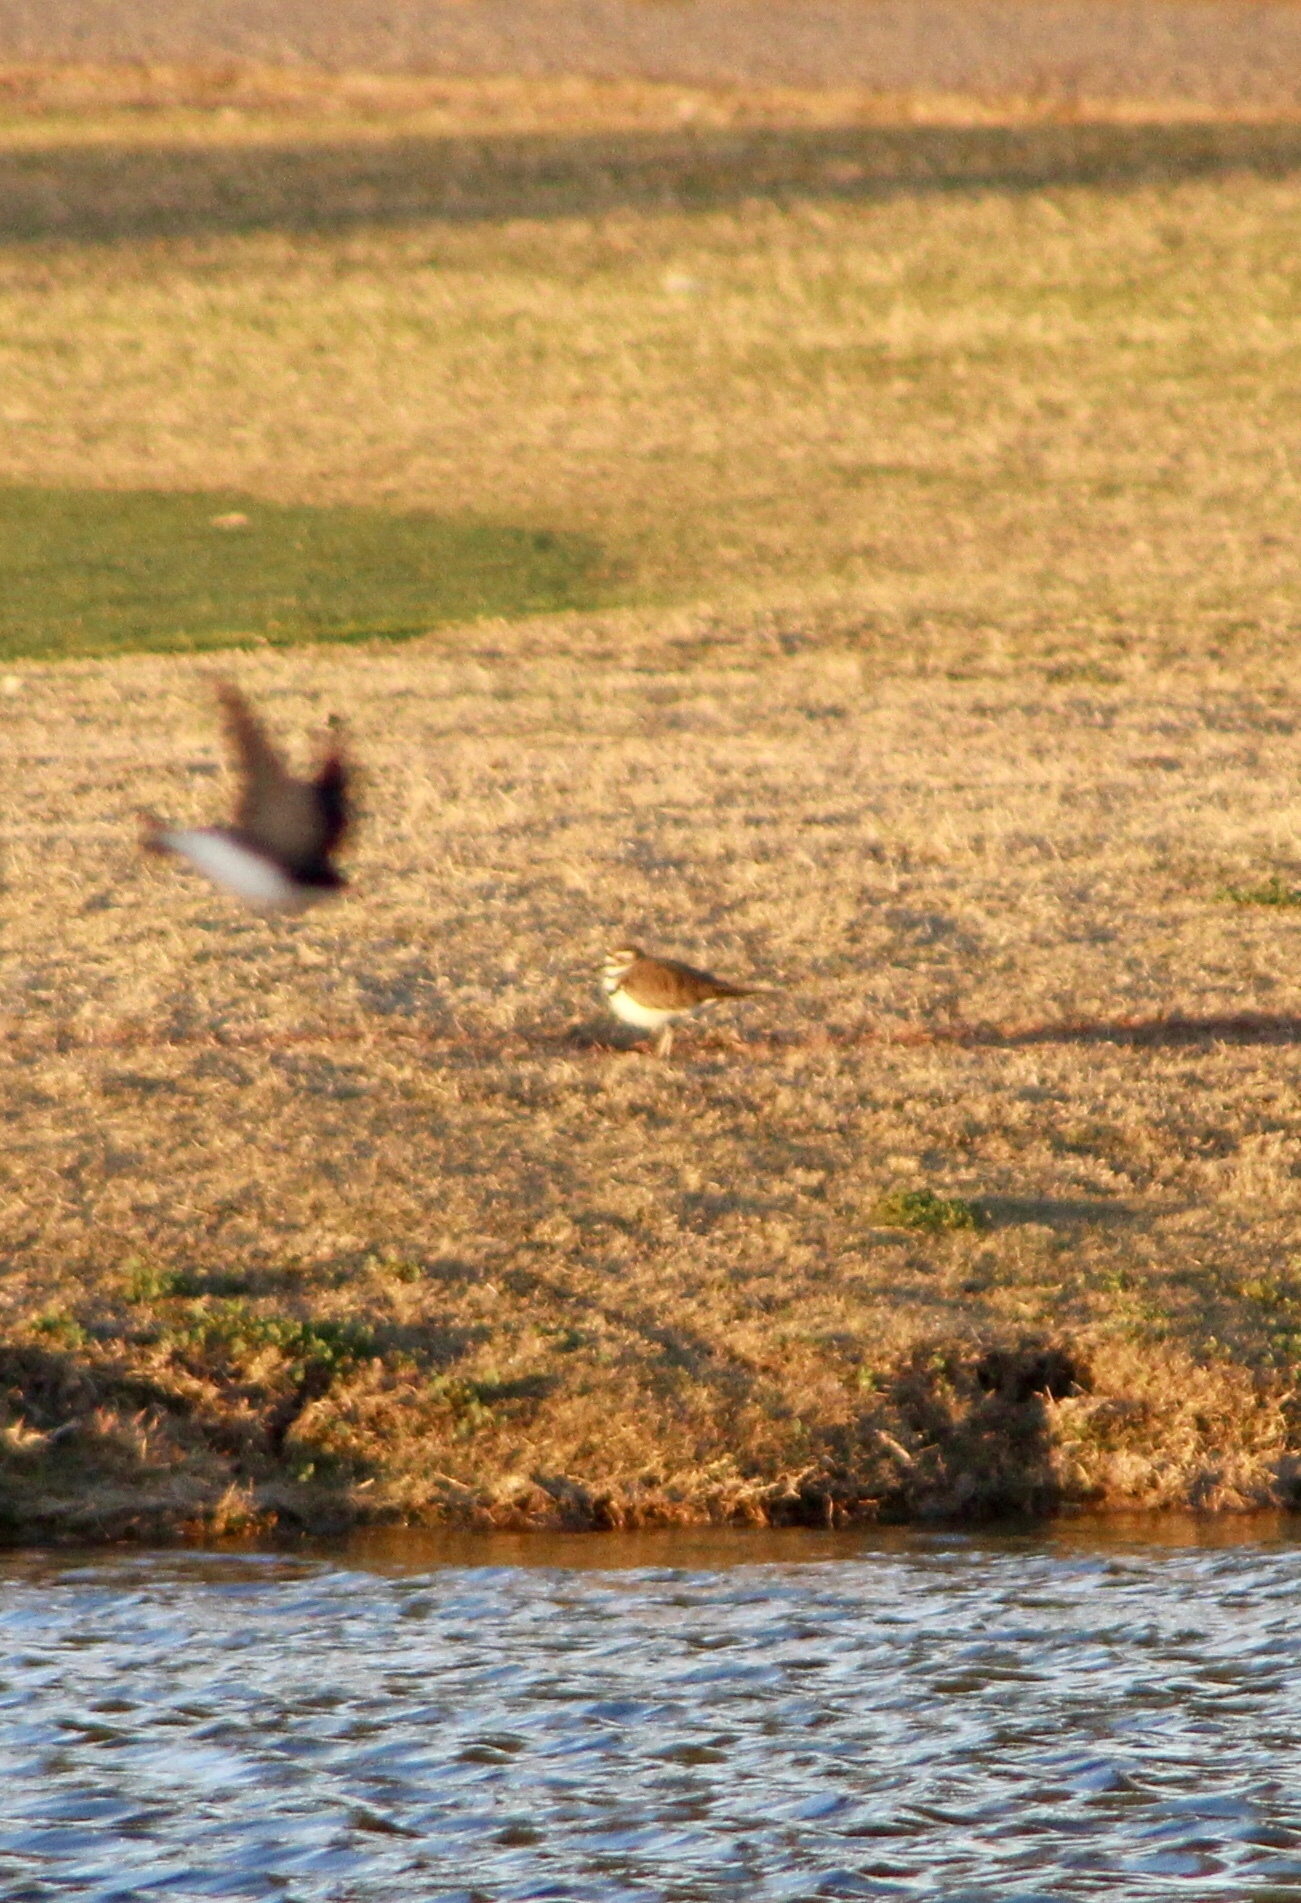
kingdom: Animalia
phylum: Chordata
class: Aves
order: Charadriiformes
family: Charadriidae
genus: Charadrius
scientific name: Charadrius vociferus
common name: Killdeer
